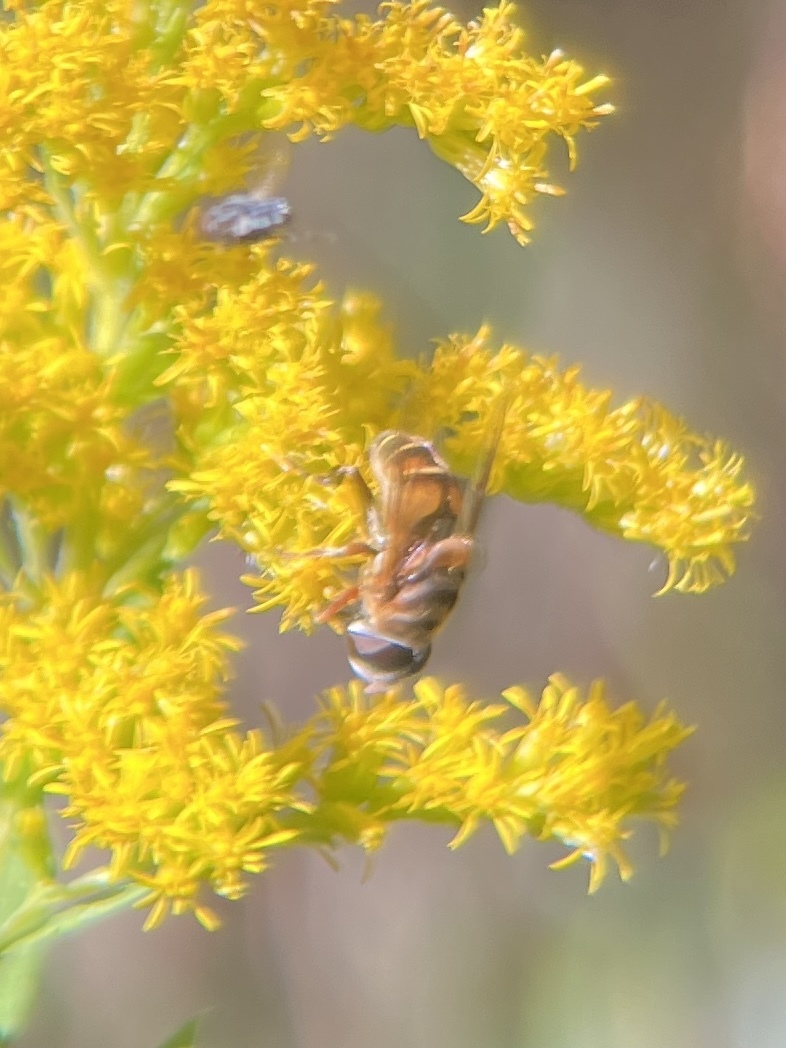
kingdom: Animalia
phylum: Arthropoda
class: Insecta
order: Diptera
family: Syrphidae
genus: Palpada
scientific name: Palpada vinetorum
